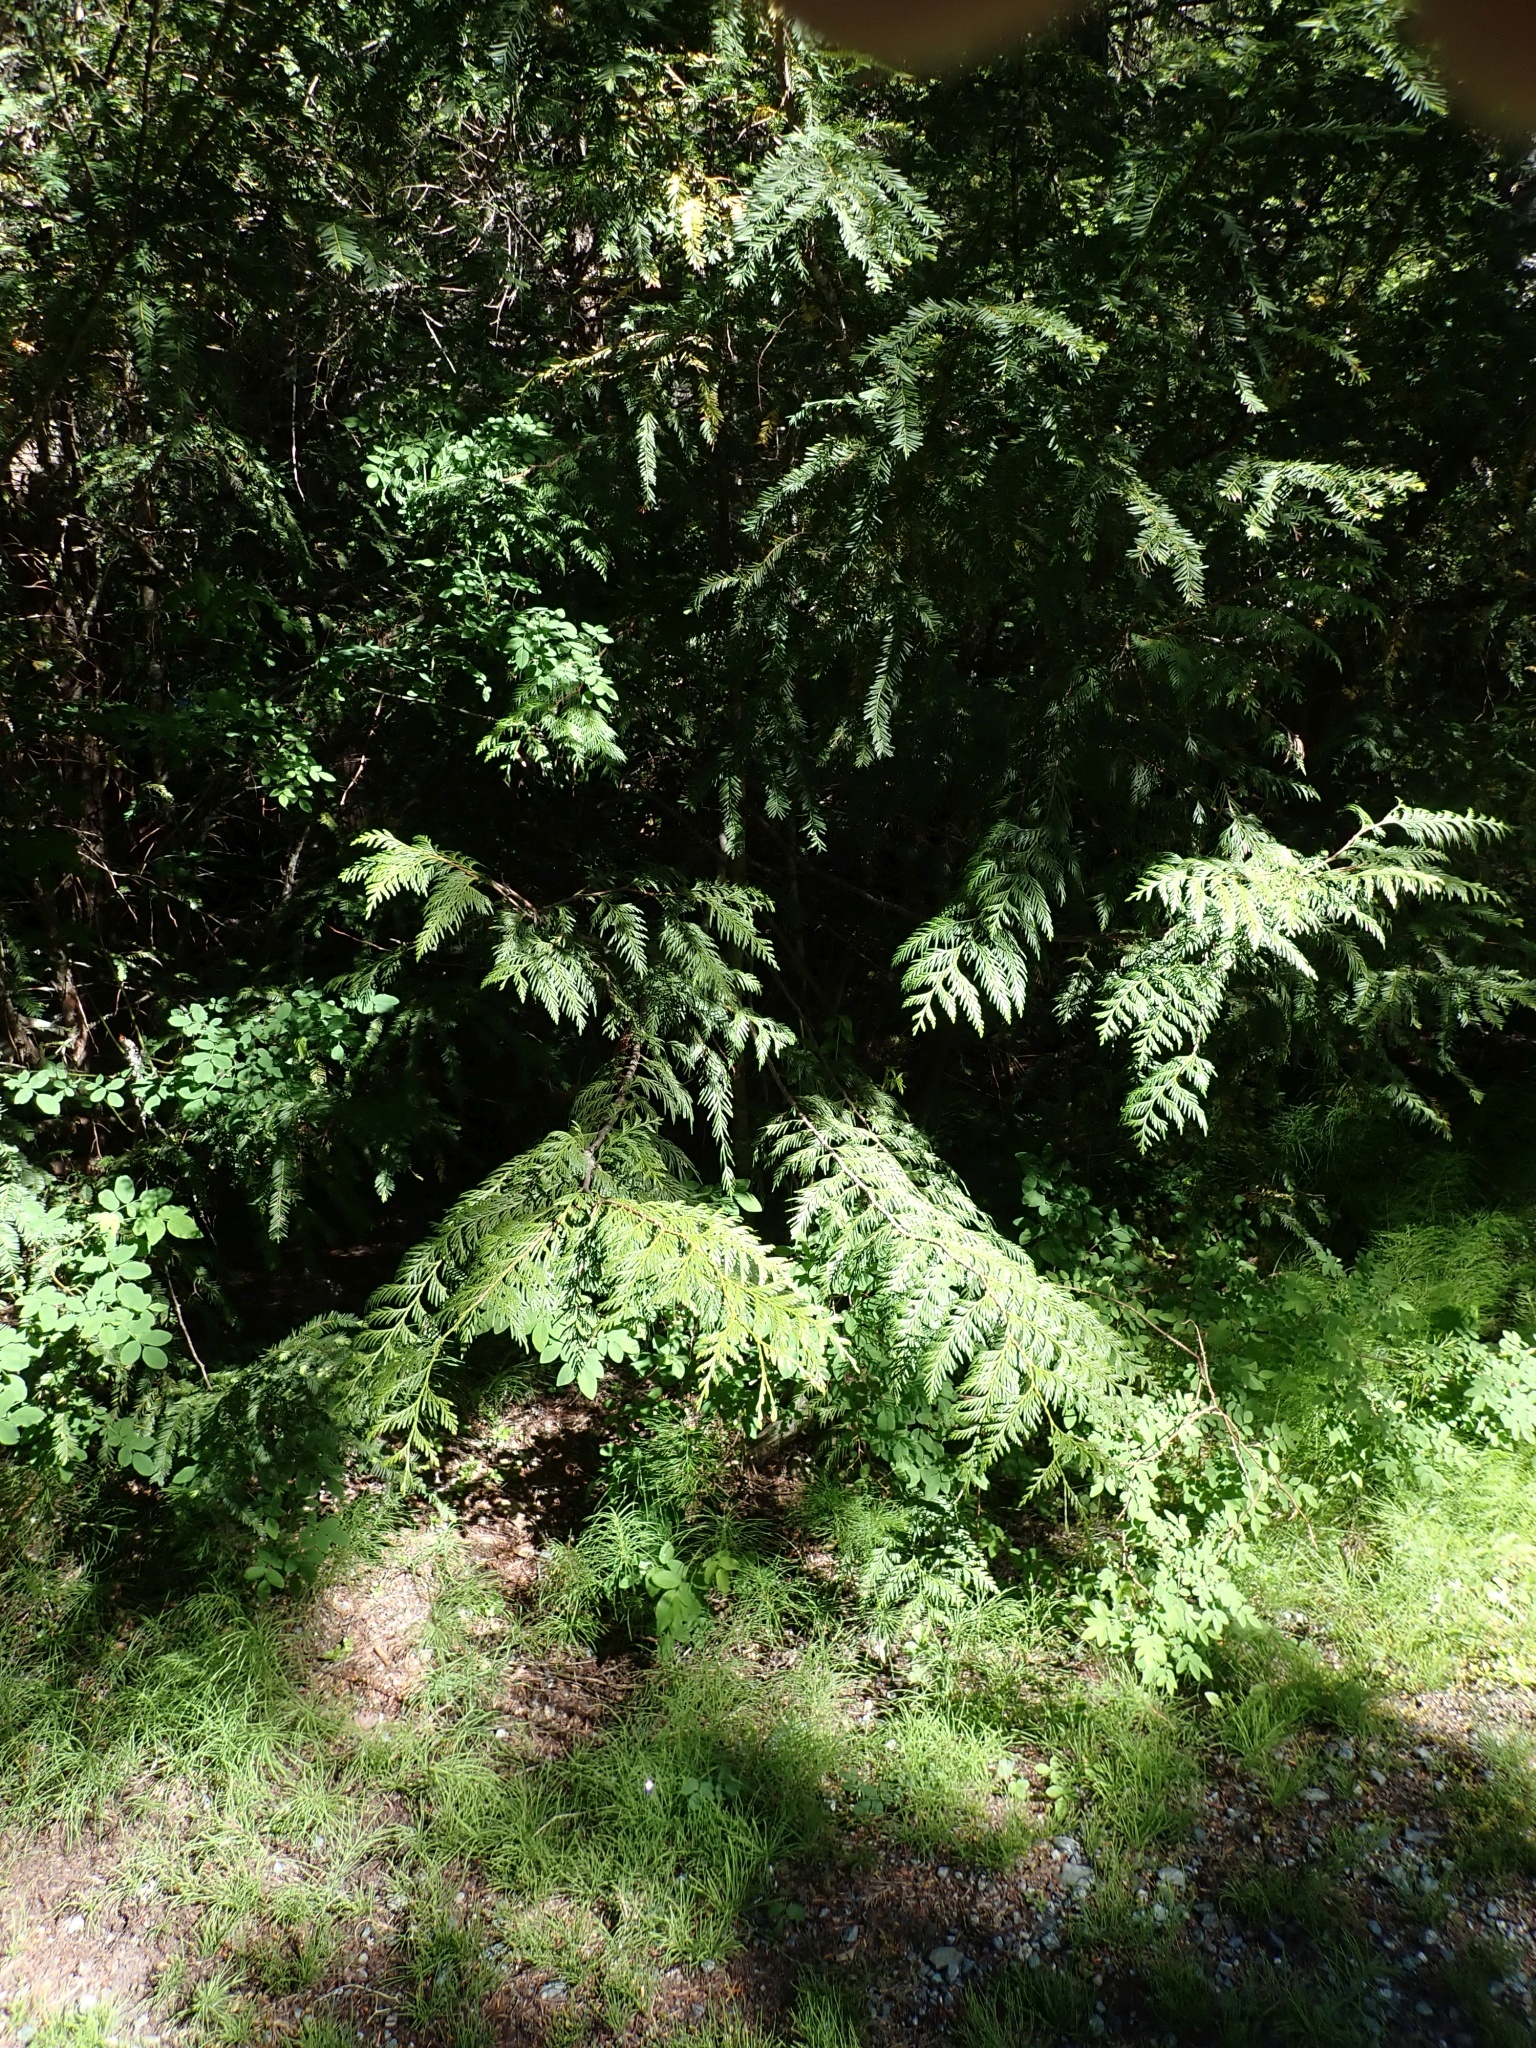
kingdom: Plantae
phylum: Tracheophyta
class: Pinopsida
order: Pinales
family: Cupressaceae
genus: Thuja
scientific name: Thuja plicata
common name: Western red-cedar
